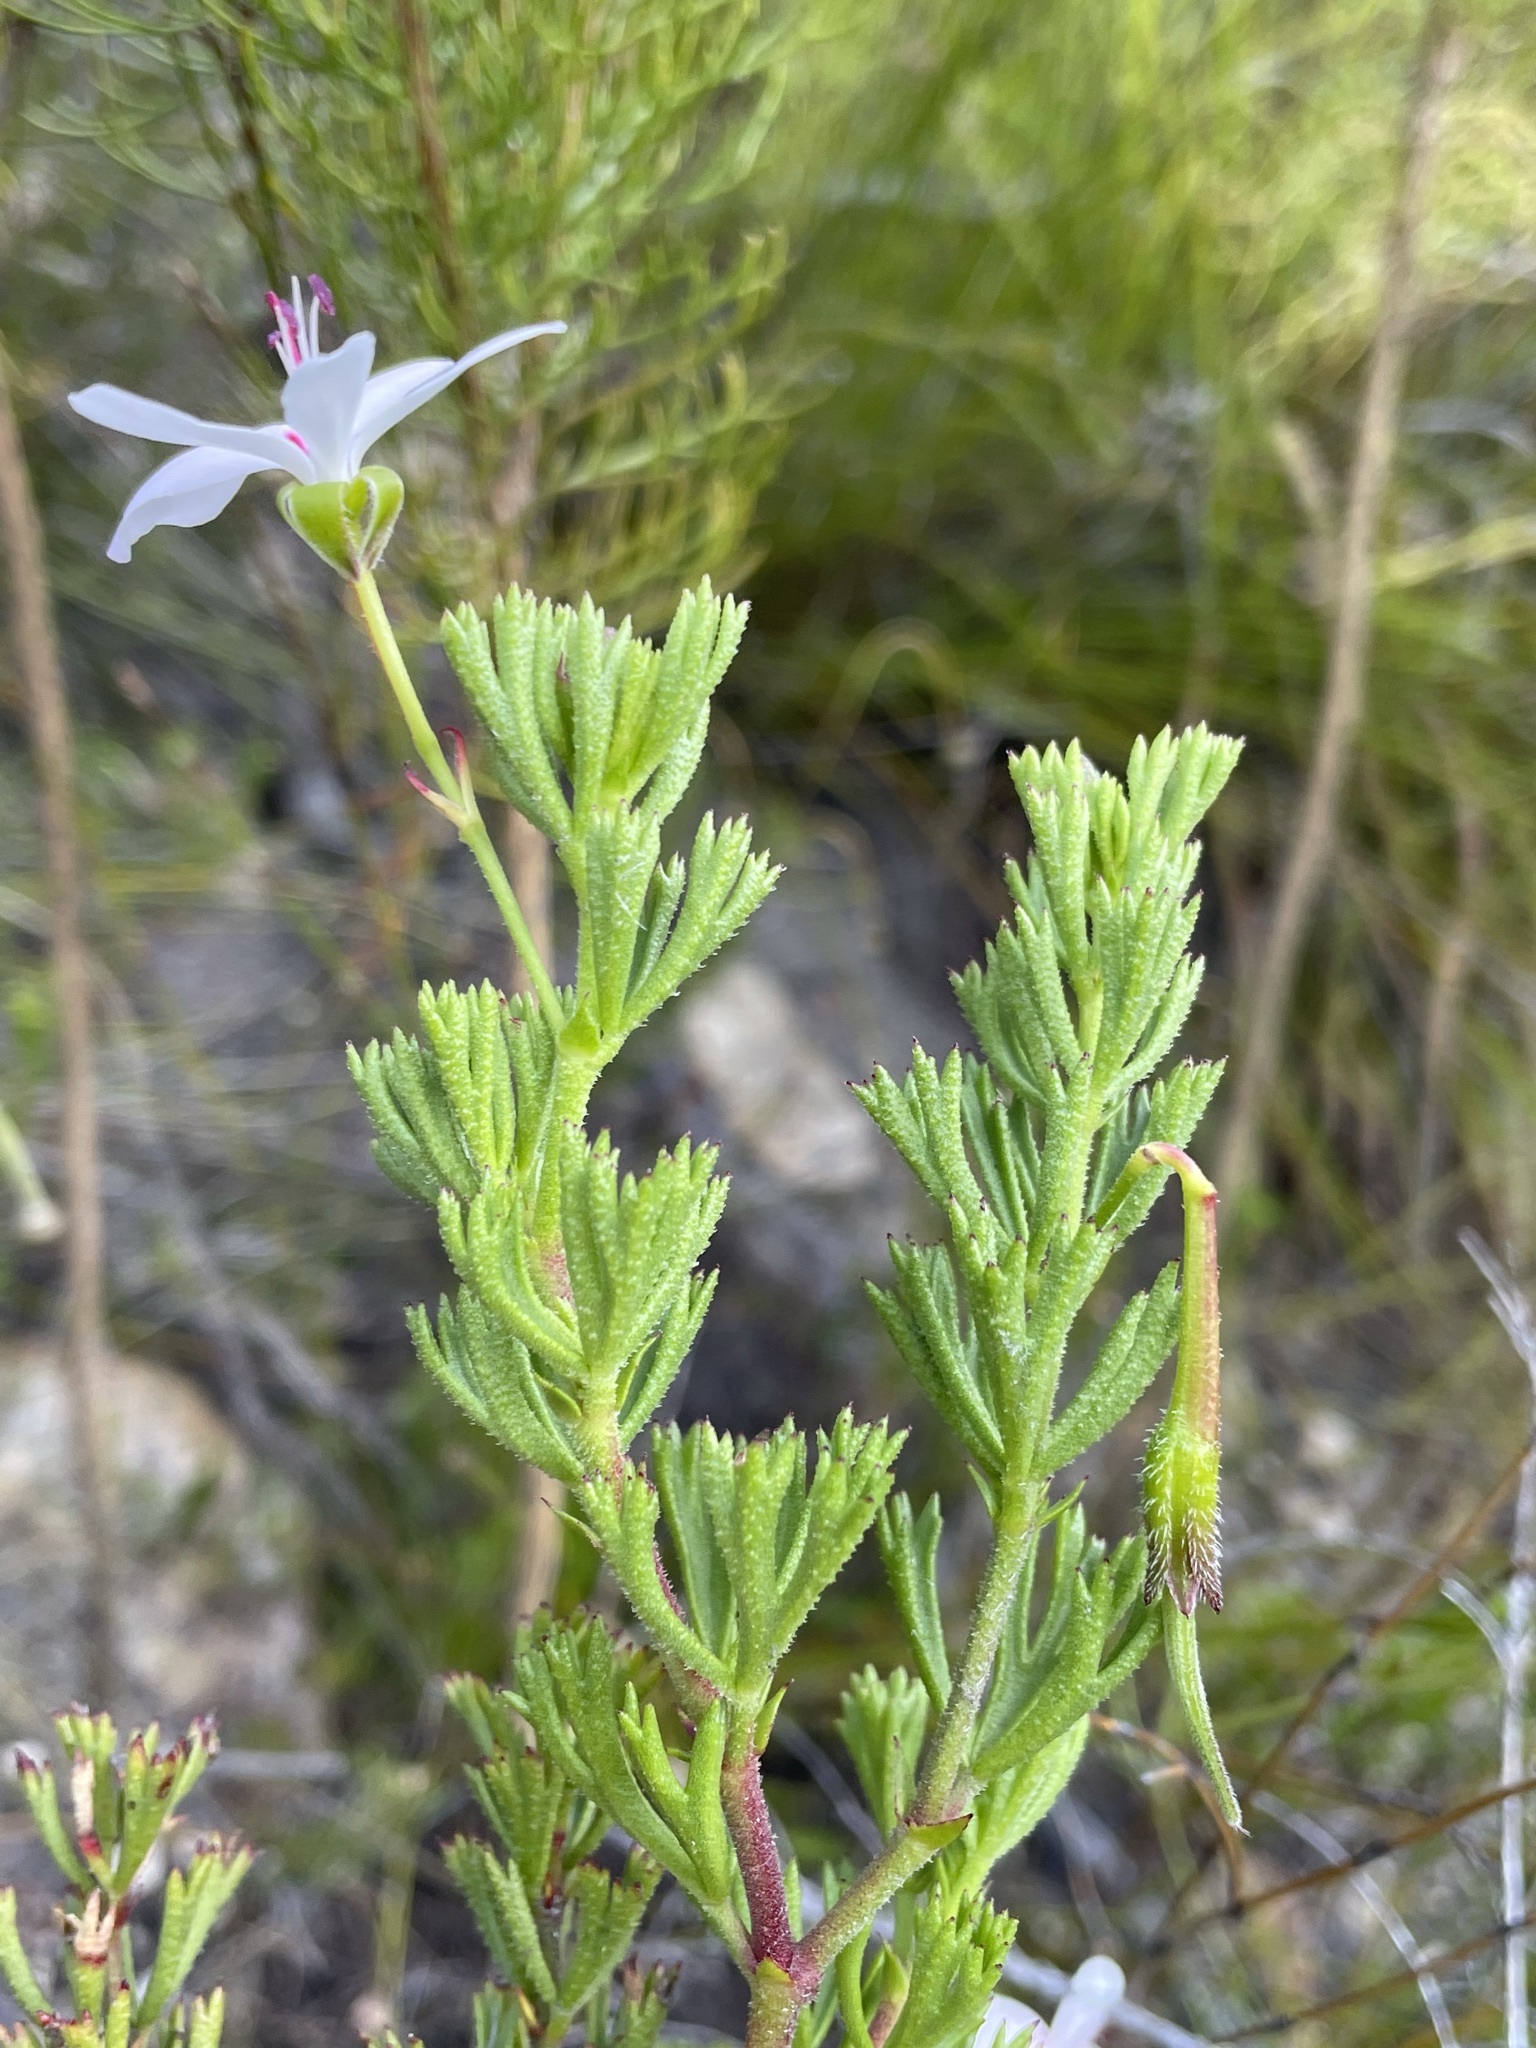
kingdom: Plantae
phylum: Tracheophyta
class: Magnoliopsida
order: Geraniales
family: Geraniaceae
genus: Pelargonium
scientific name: Pelargonium ternatum
